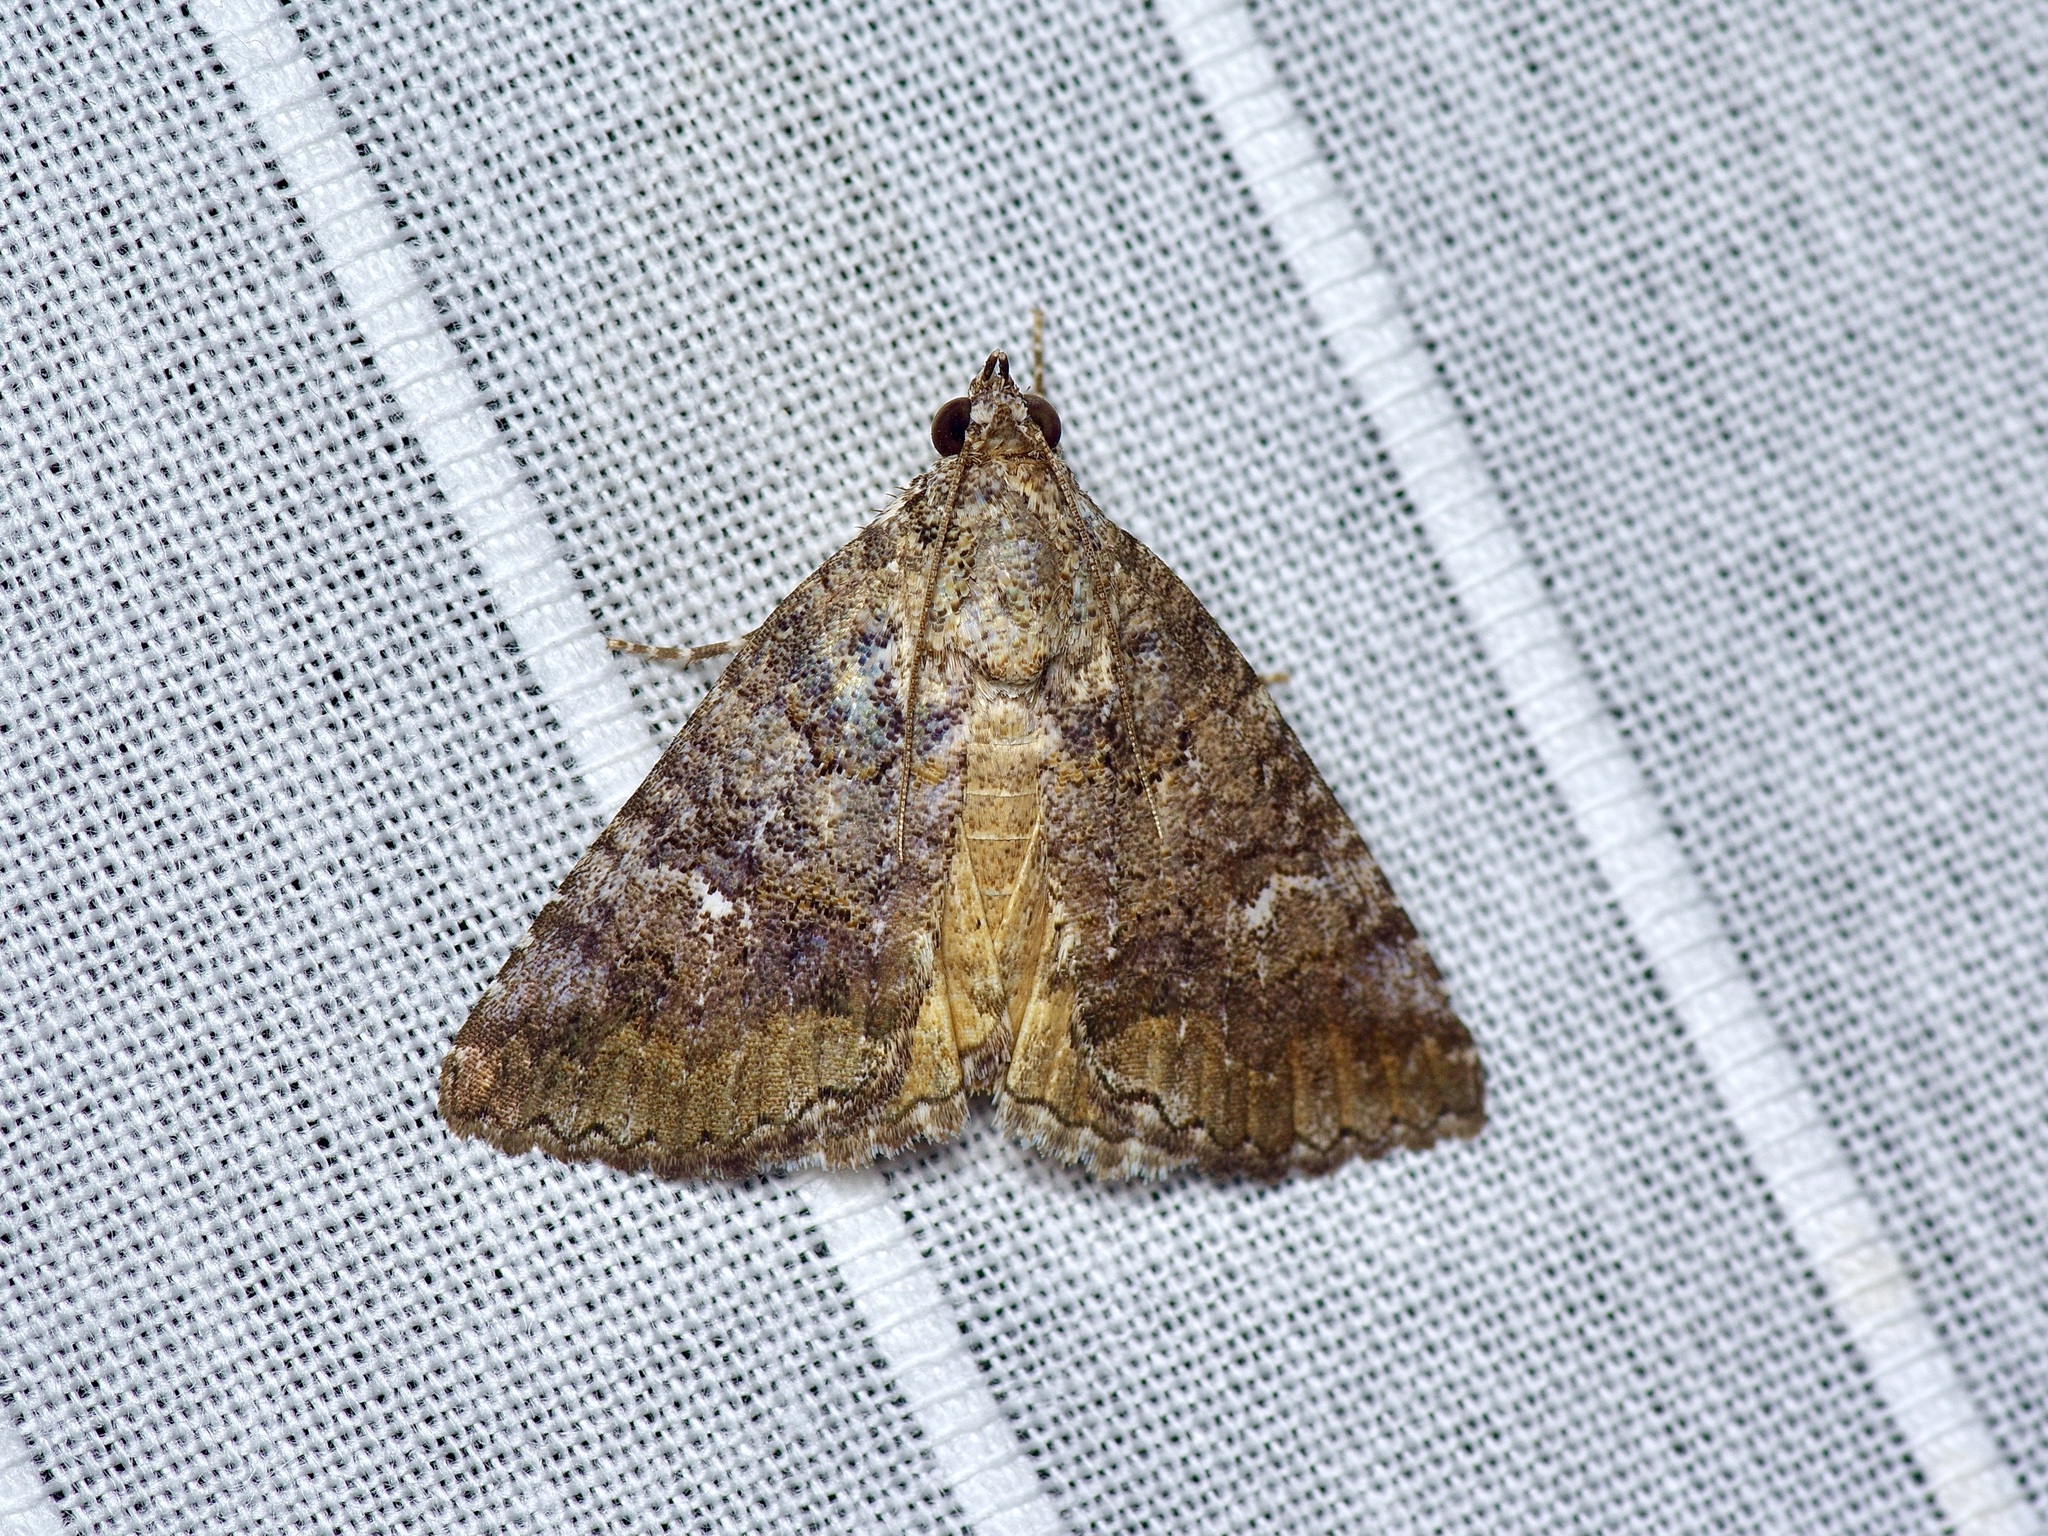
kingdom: Animalia
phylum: Arthropoda
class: Insecta
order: Lepidoptera
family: Erebidae
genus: Eubolina
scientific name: Eubolina impartialis
